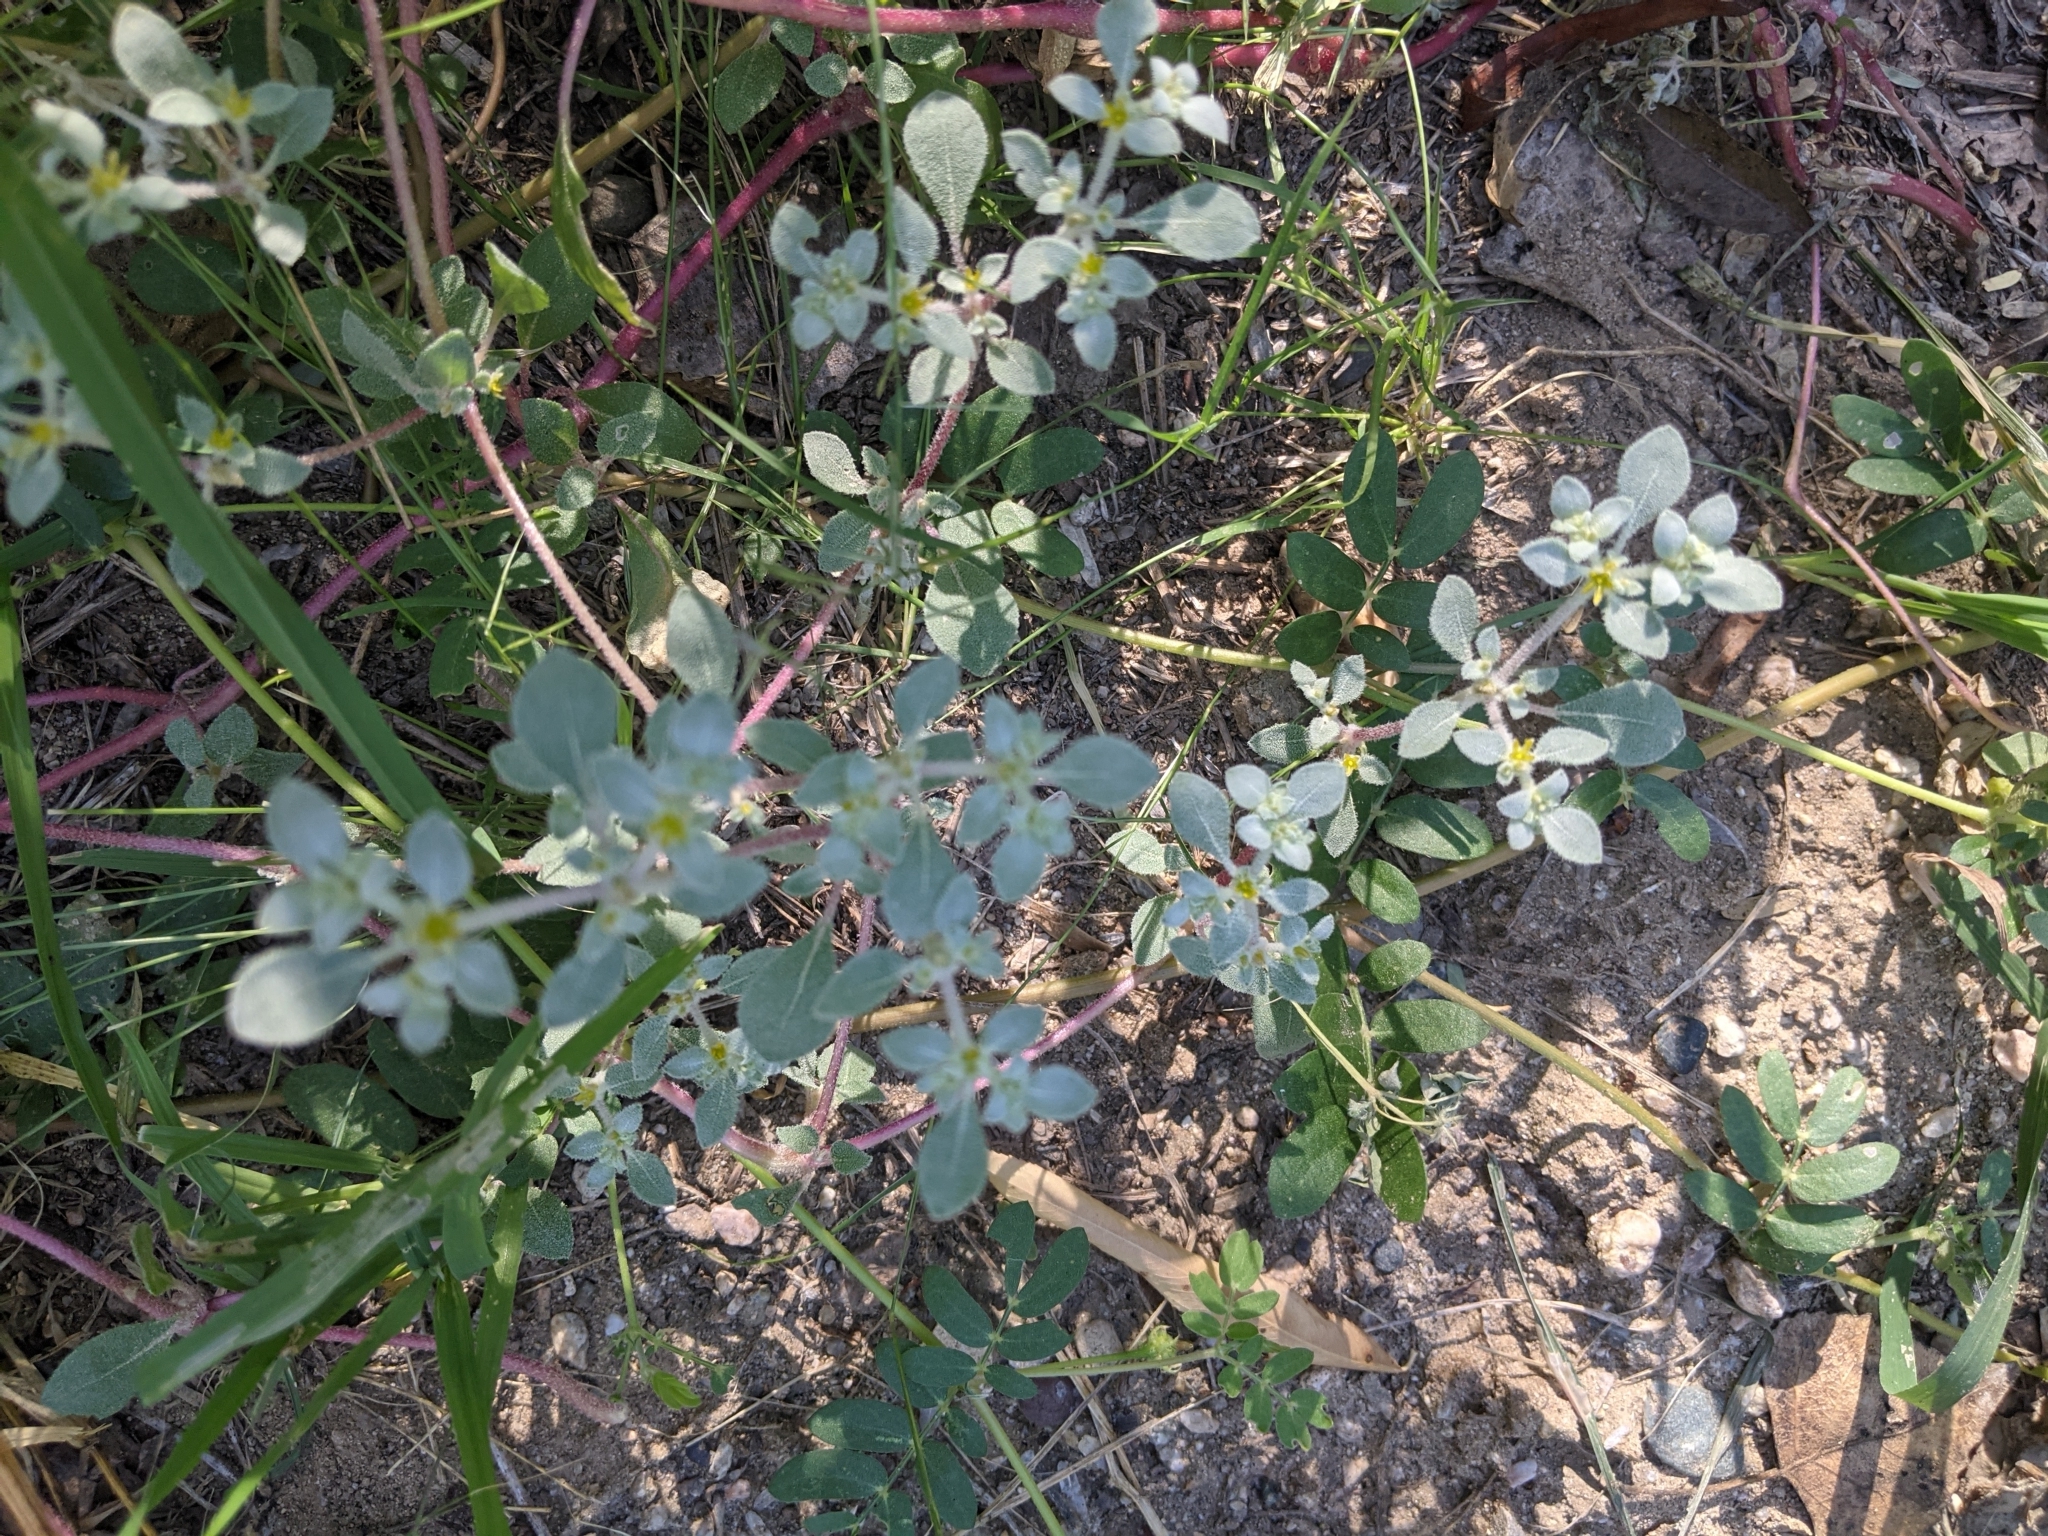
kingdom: Plantae
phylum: Tracheophyta
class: Magnoliopsida
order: Caryophyllales
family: Amaranthaceae
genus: Tidestromia
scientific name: Tidestromia lanuginosa
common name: Woolly tidestromia
